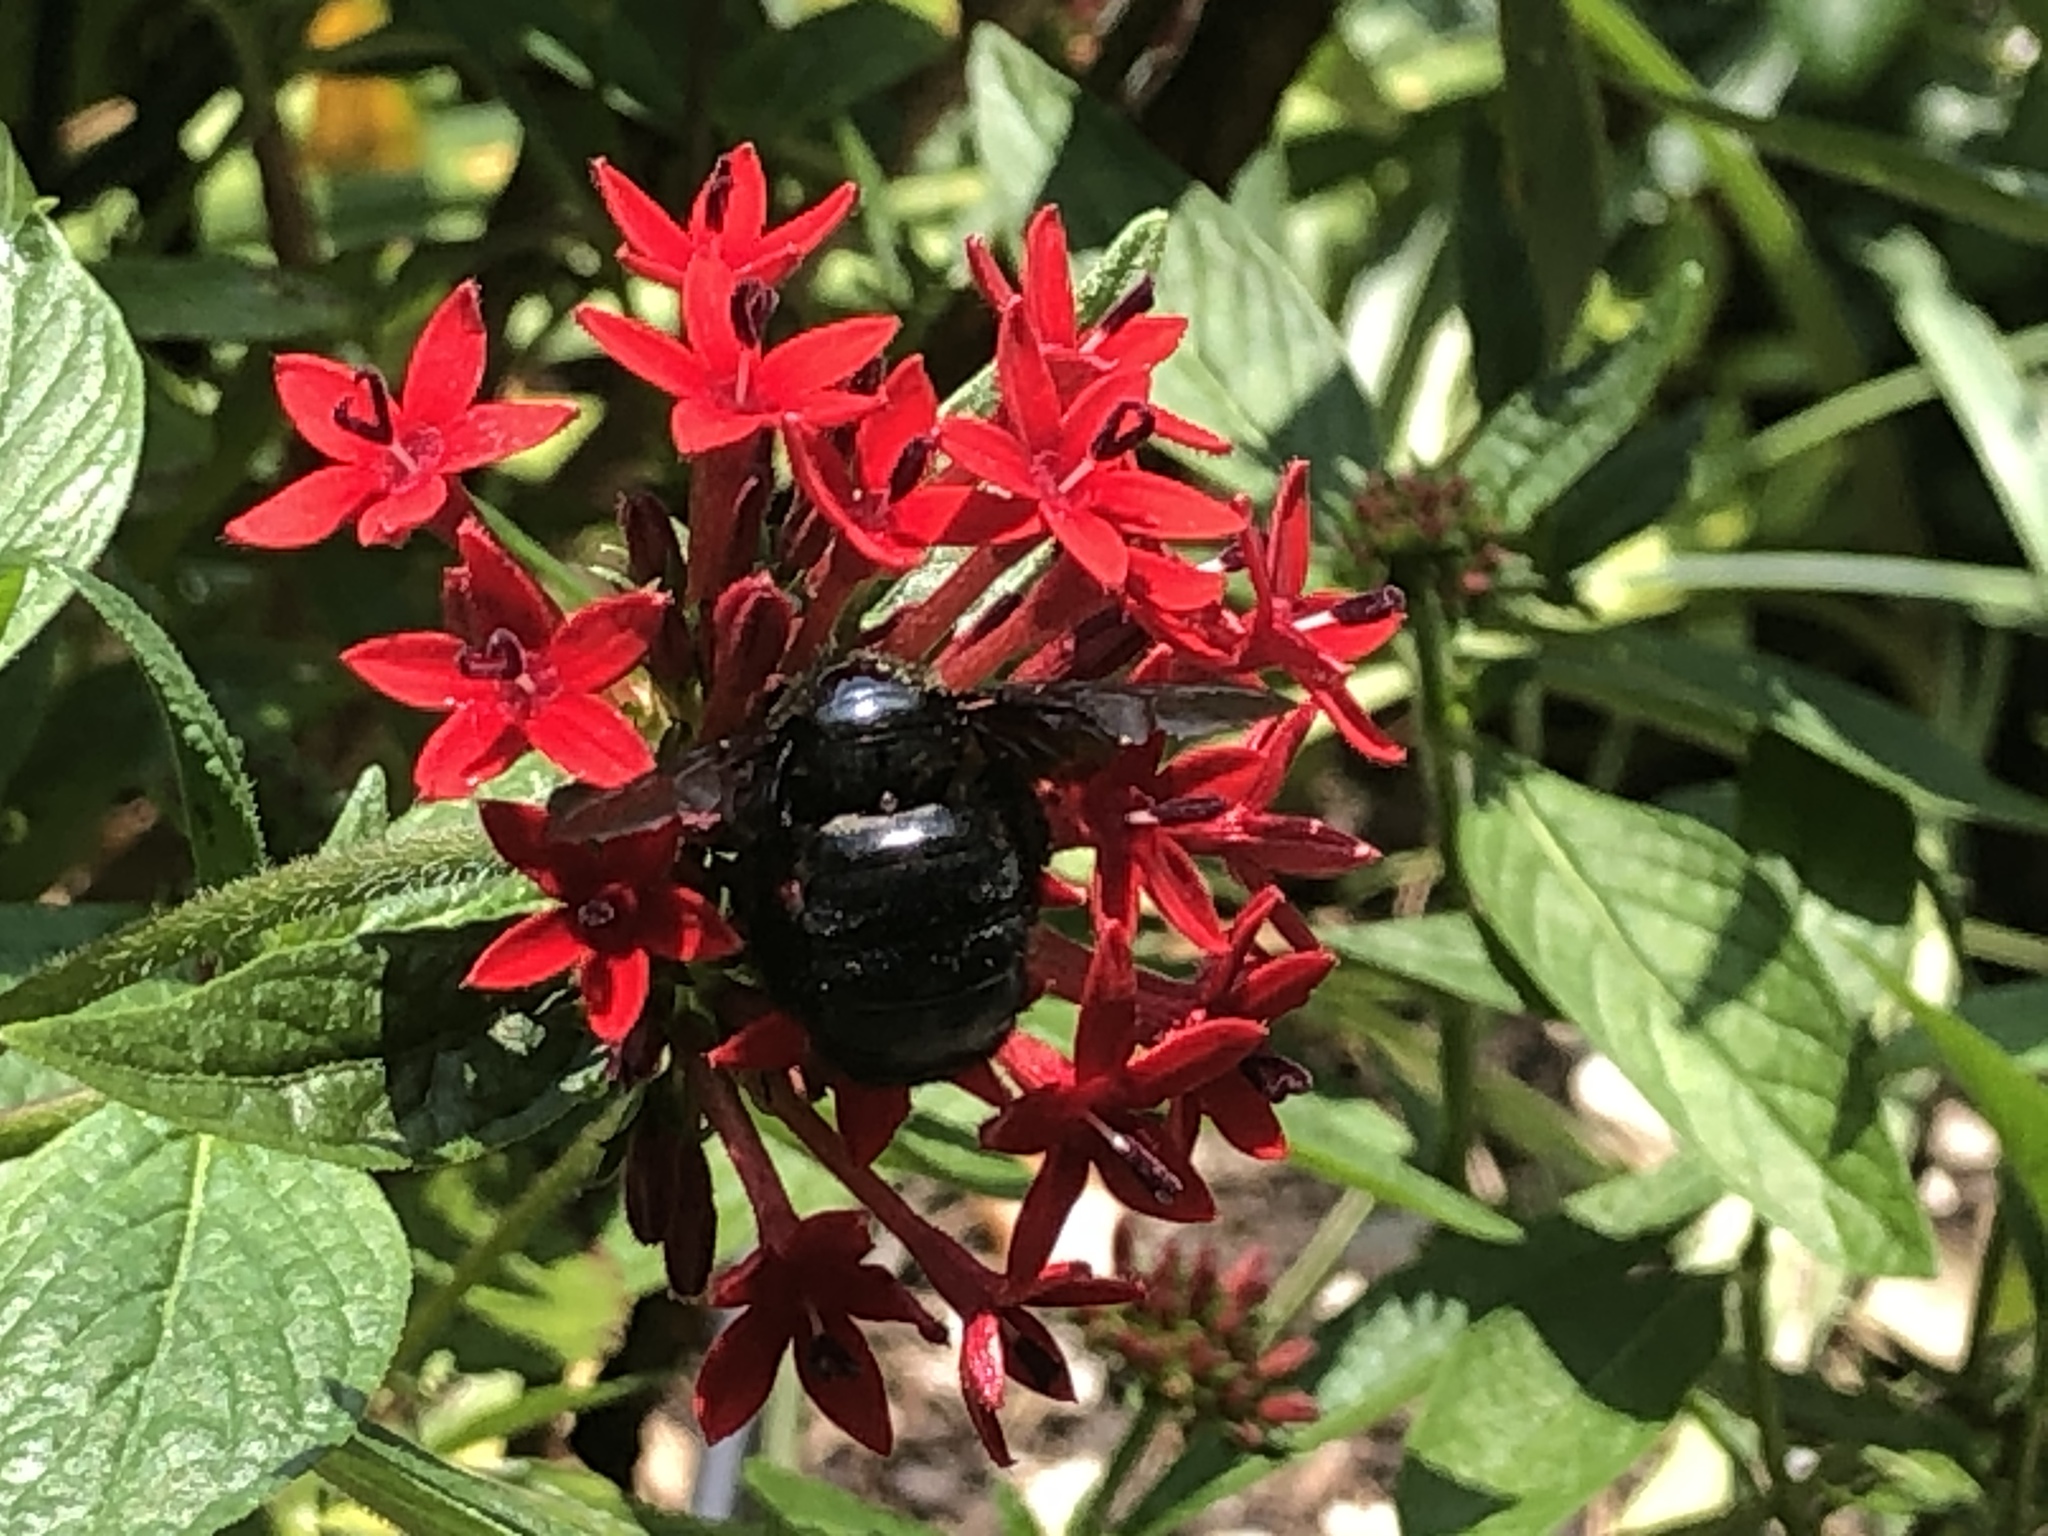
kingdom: Animalia
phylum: Arthropoda
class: Insecta
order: Hymenoptera
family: Apidae
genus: Xylocopa
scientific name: Xylocopa strandi
